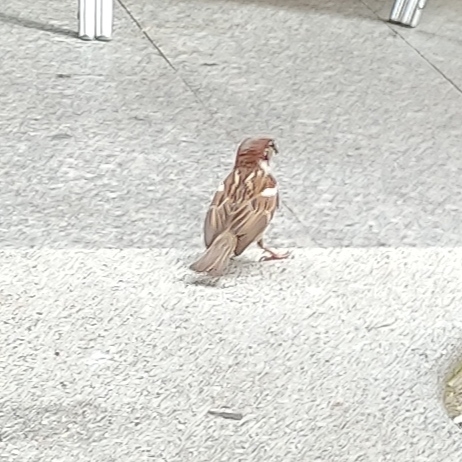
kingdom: Animalia
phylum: Chordata
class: Aves
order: Passeriformes
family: Passeridae
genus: Passer
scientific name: Passer domesticus
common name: House sparrow
